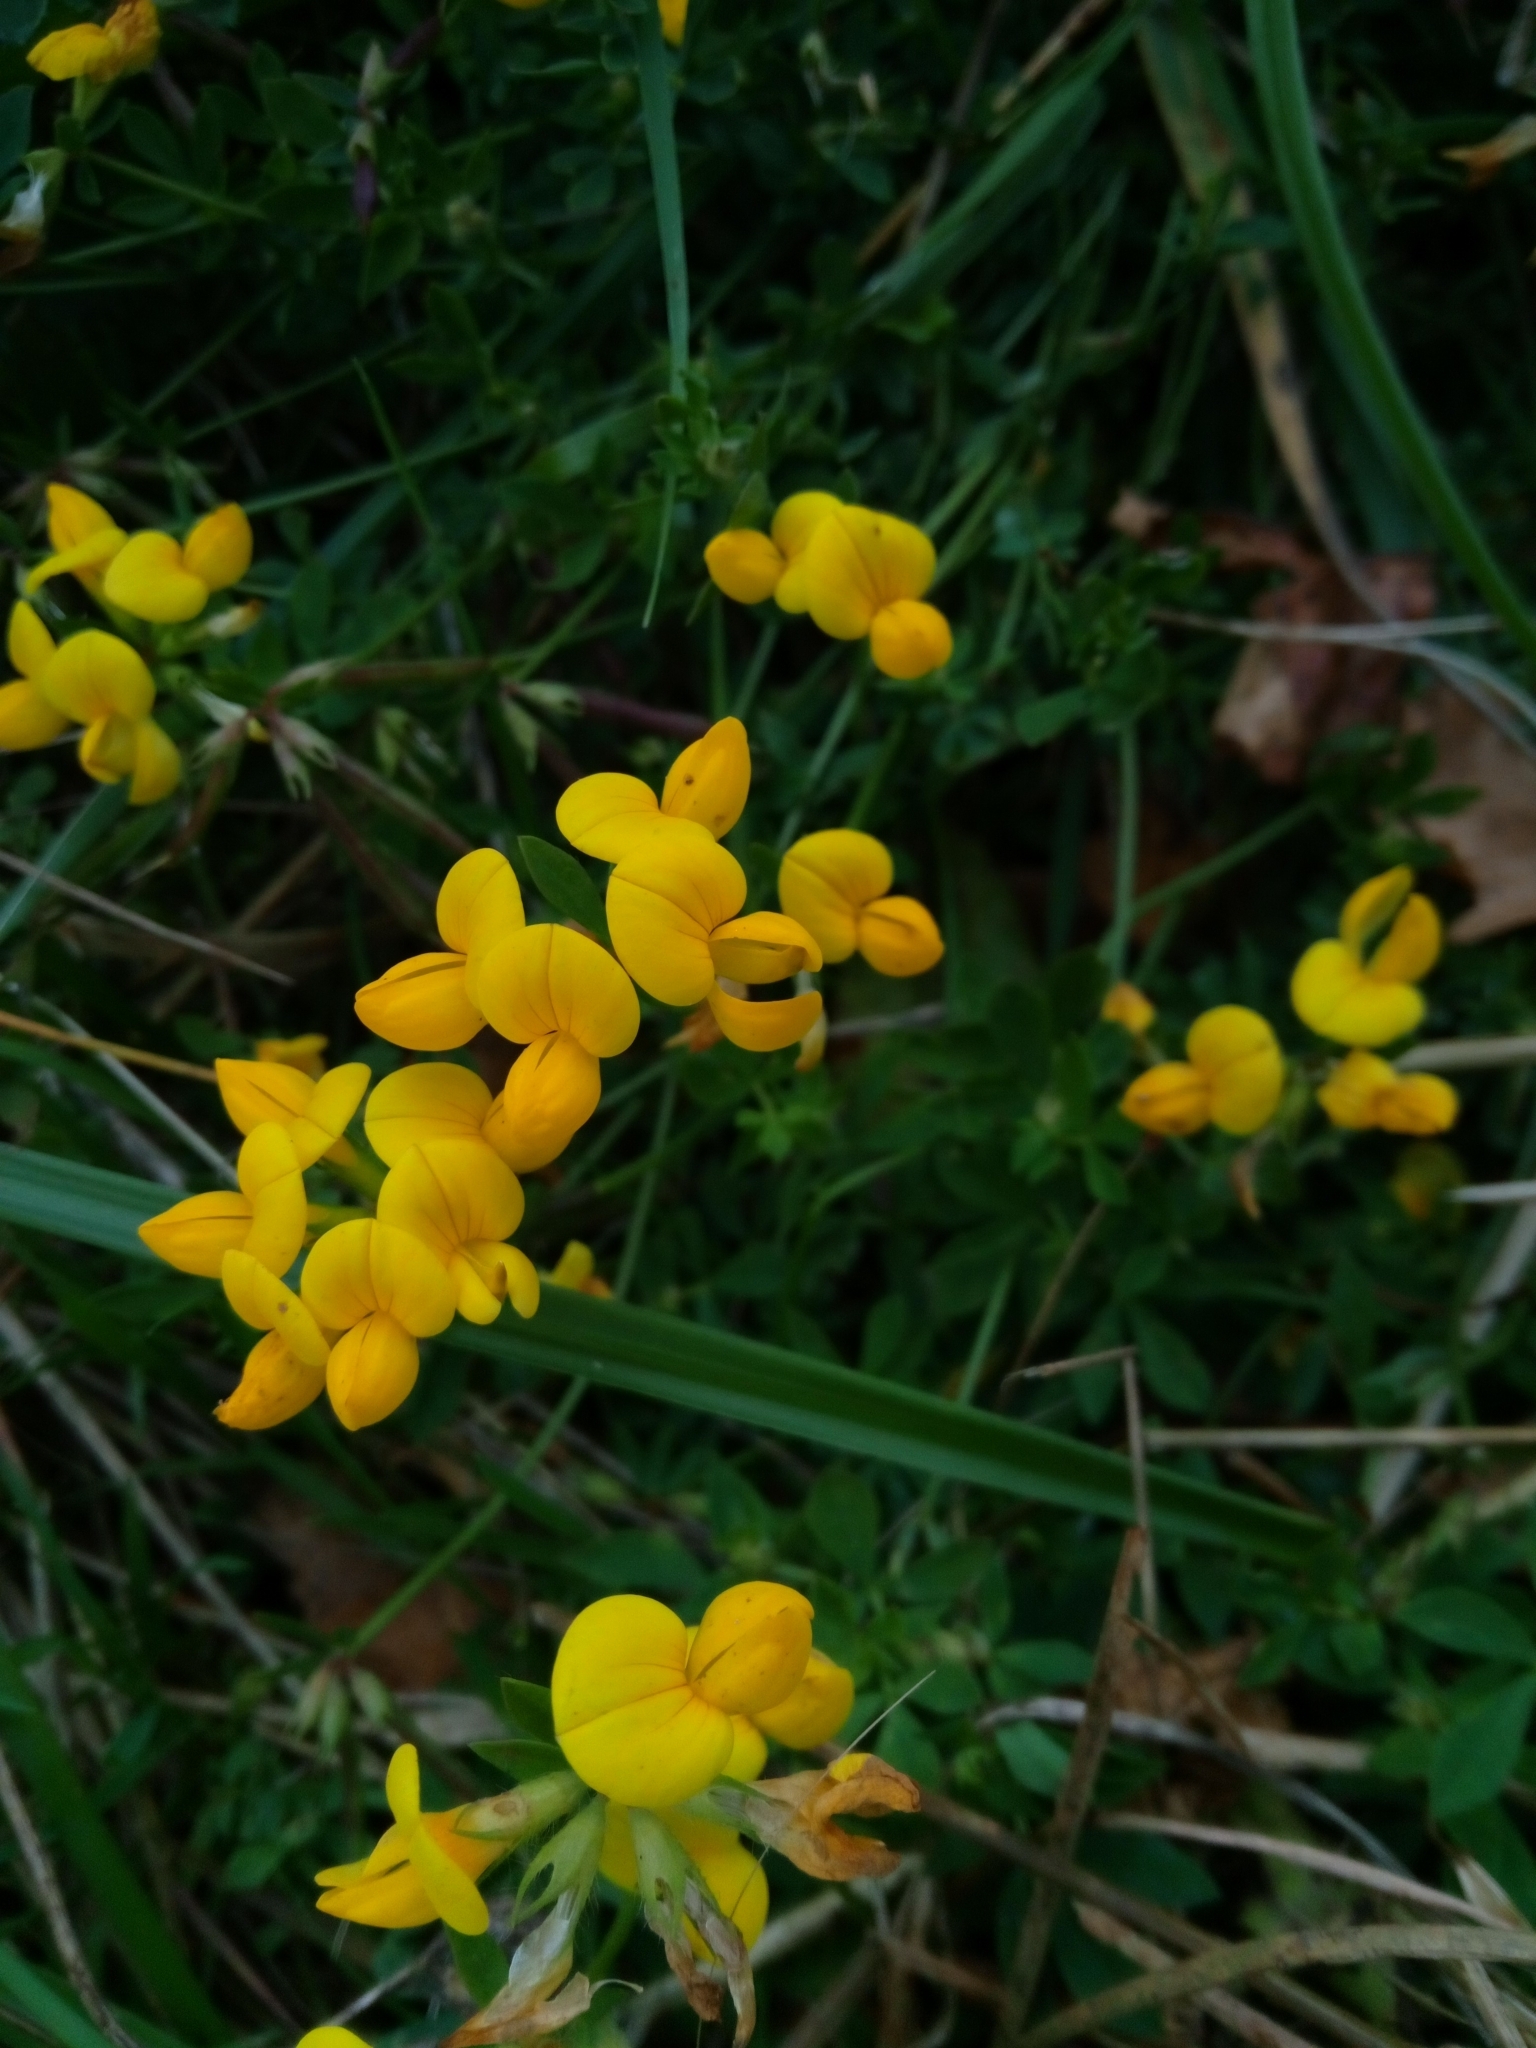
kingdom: Plantae
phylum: Tracheophyta
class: Magnoliopsida
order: Fabales
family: Fabaceae
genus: Lotus
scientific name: Lotus corniculatus
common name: Common bird's-foot-trefoil
